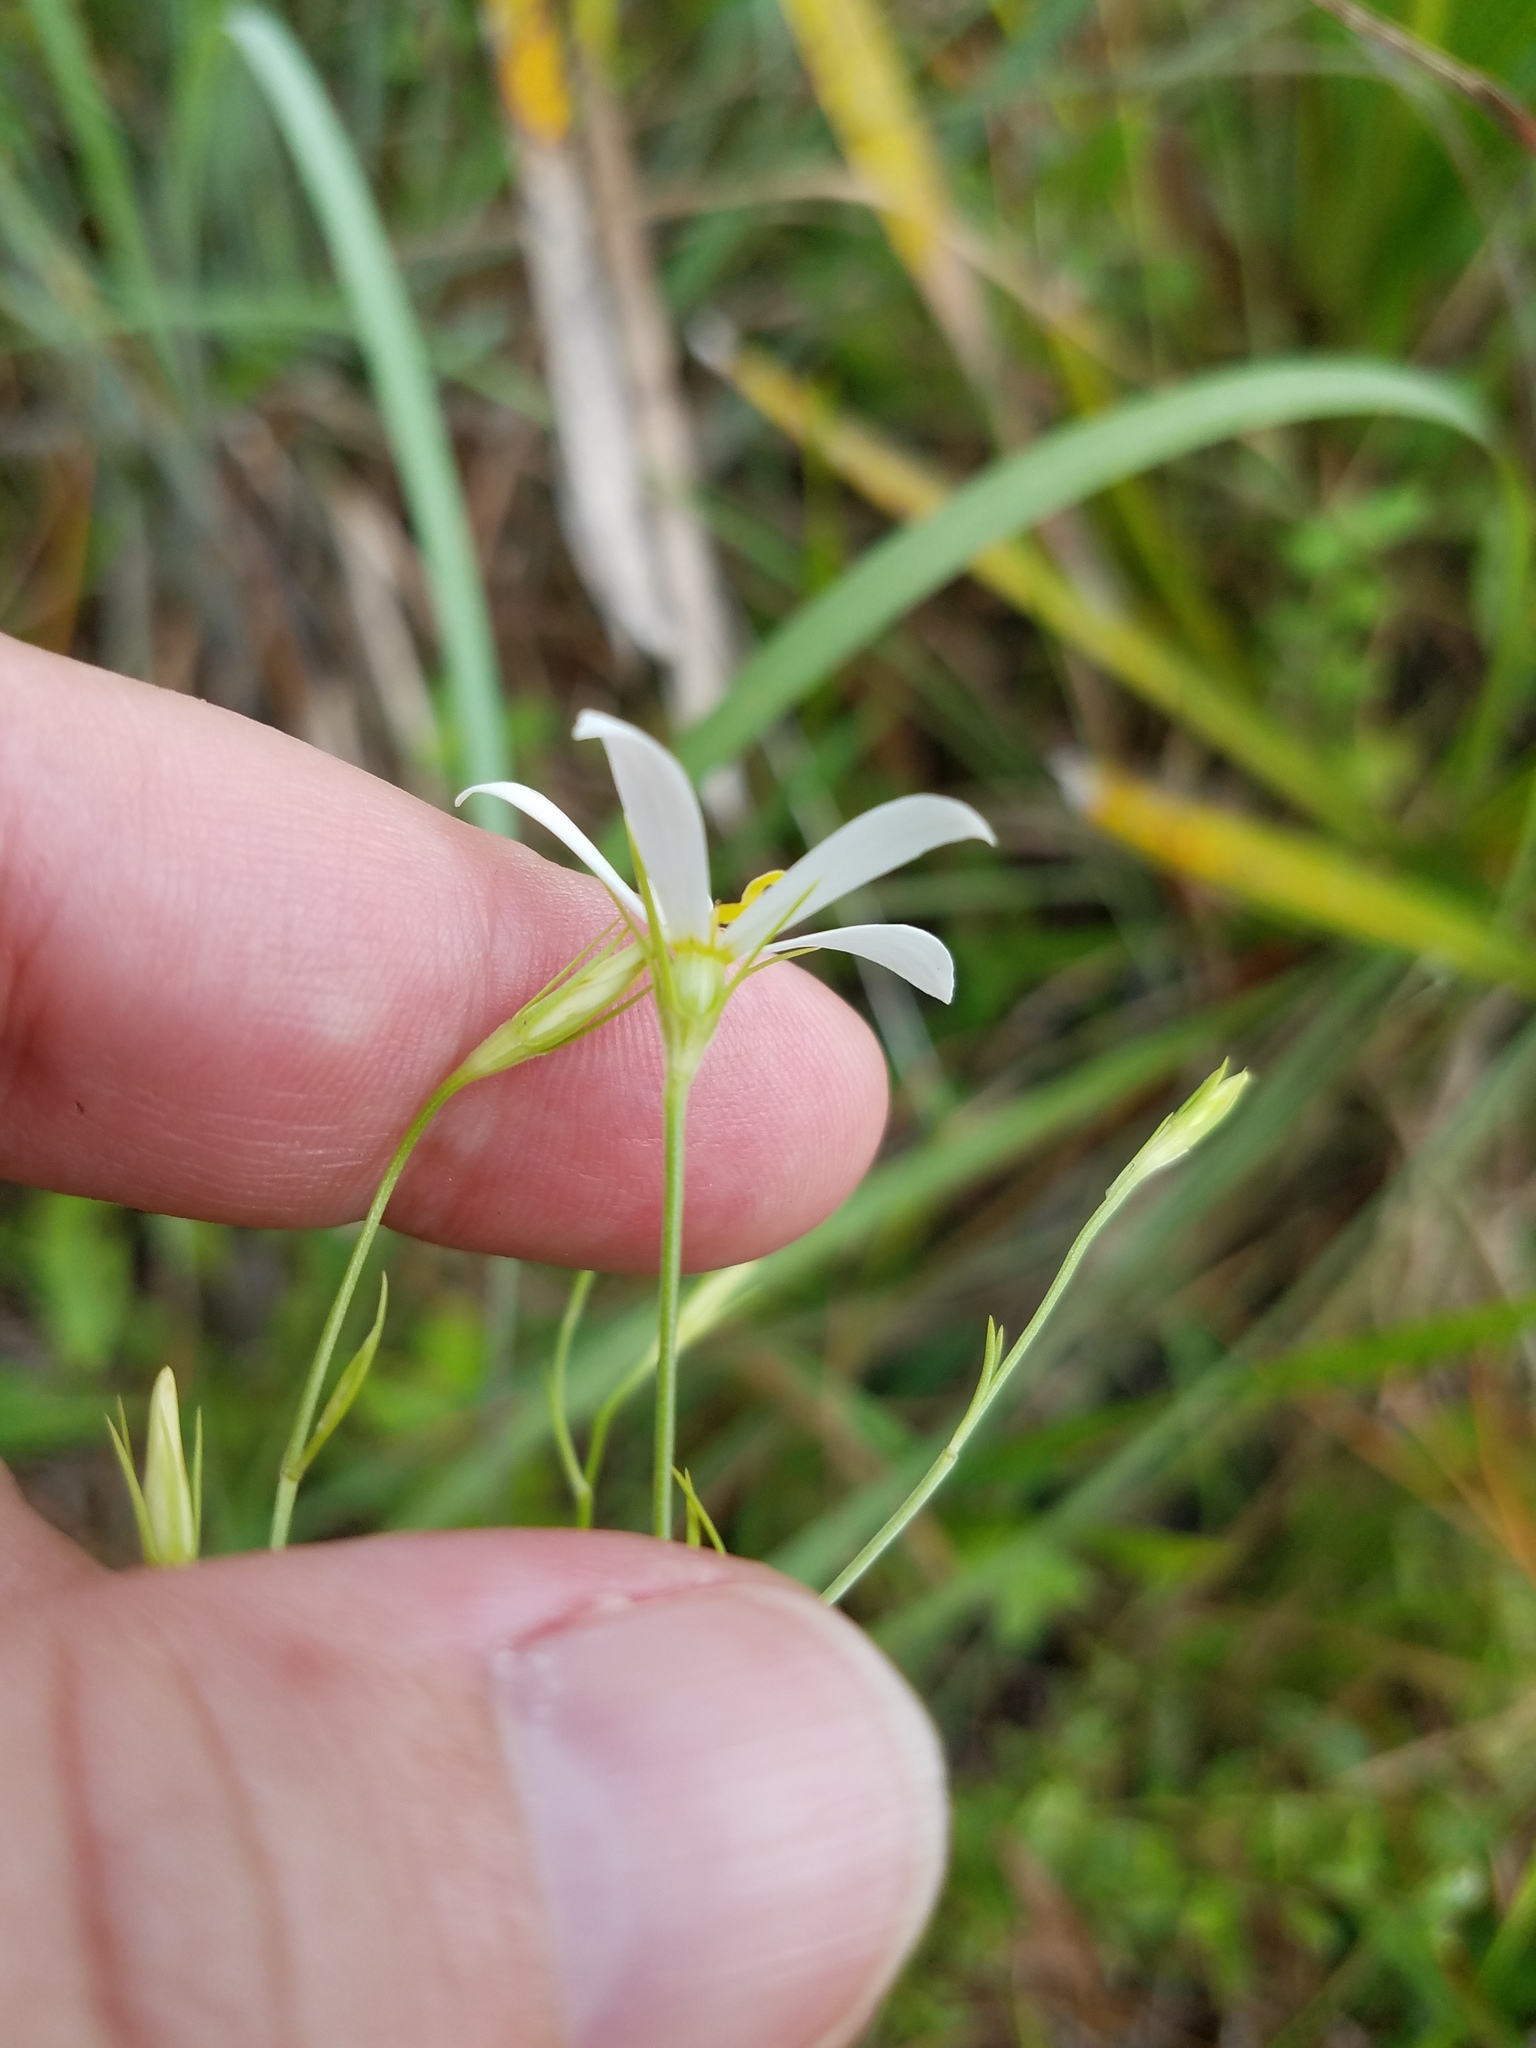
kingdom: Plantae
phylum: Tracheophyta
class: Magnoliopsida
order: Gentianales
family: Gentianaceae
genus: Sabatia
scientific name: Sabatia brevifolia
